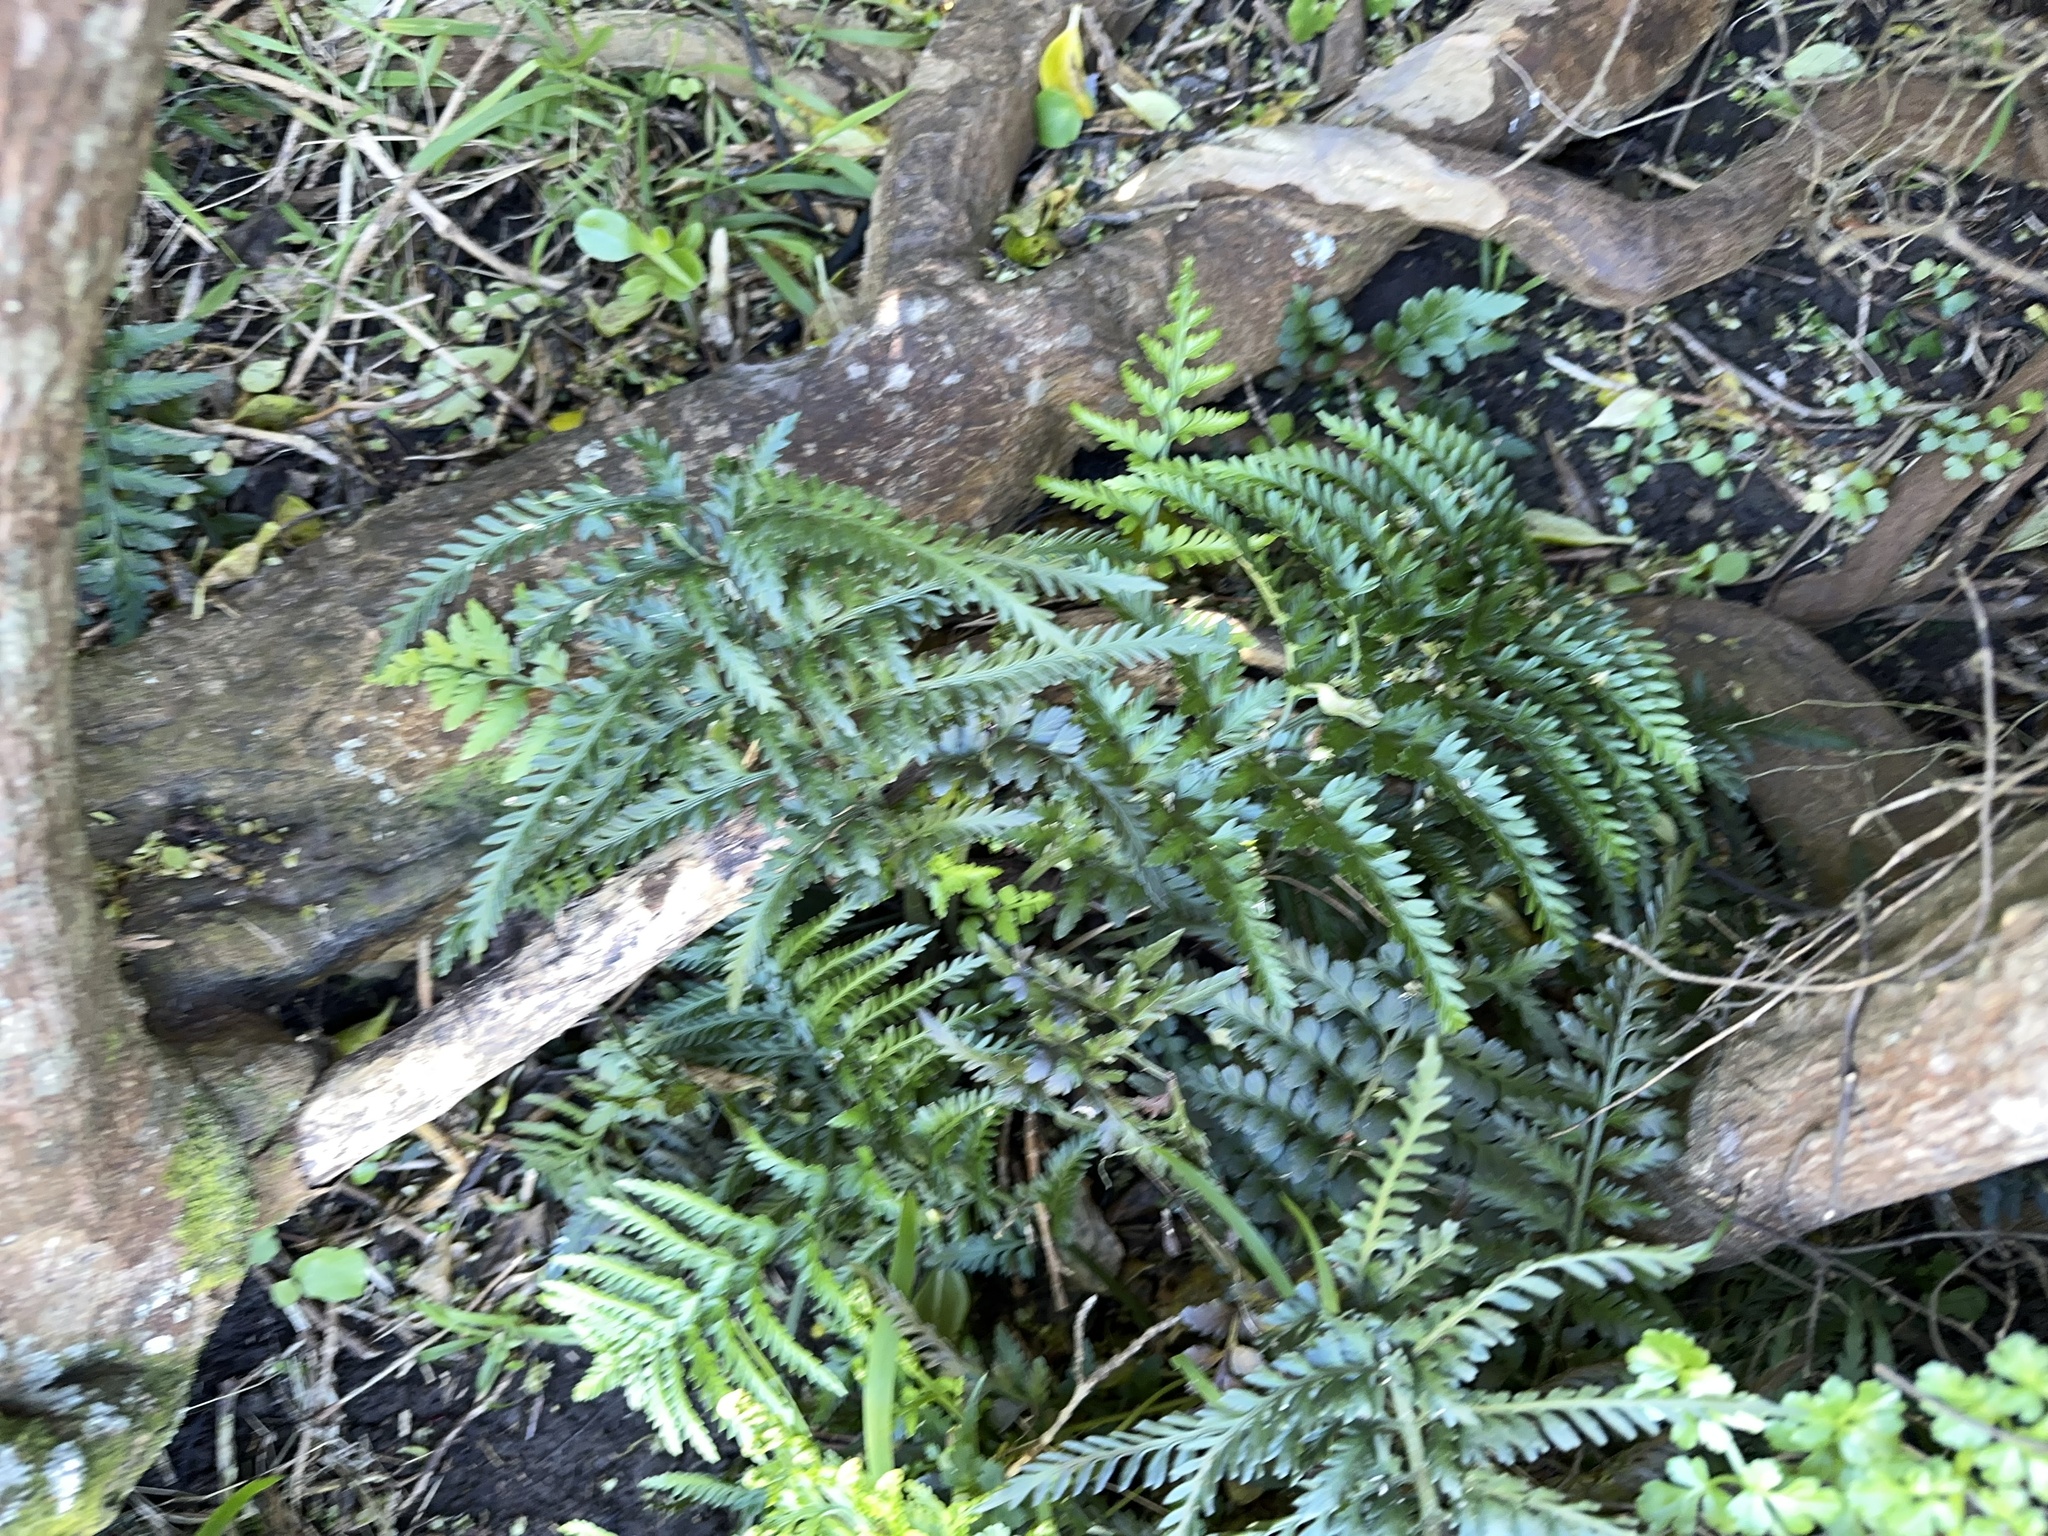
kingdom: Plantae
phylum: Tracheophyta
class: Polypodiopsida
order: Polypodiales
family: Aspleniaceae
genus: Asplenium
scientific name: Asplenium appendiculatum
